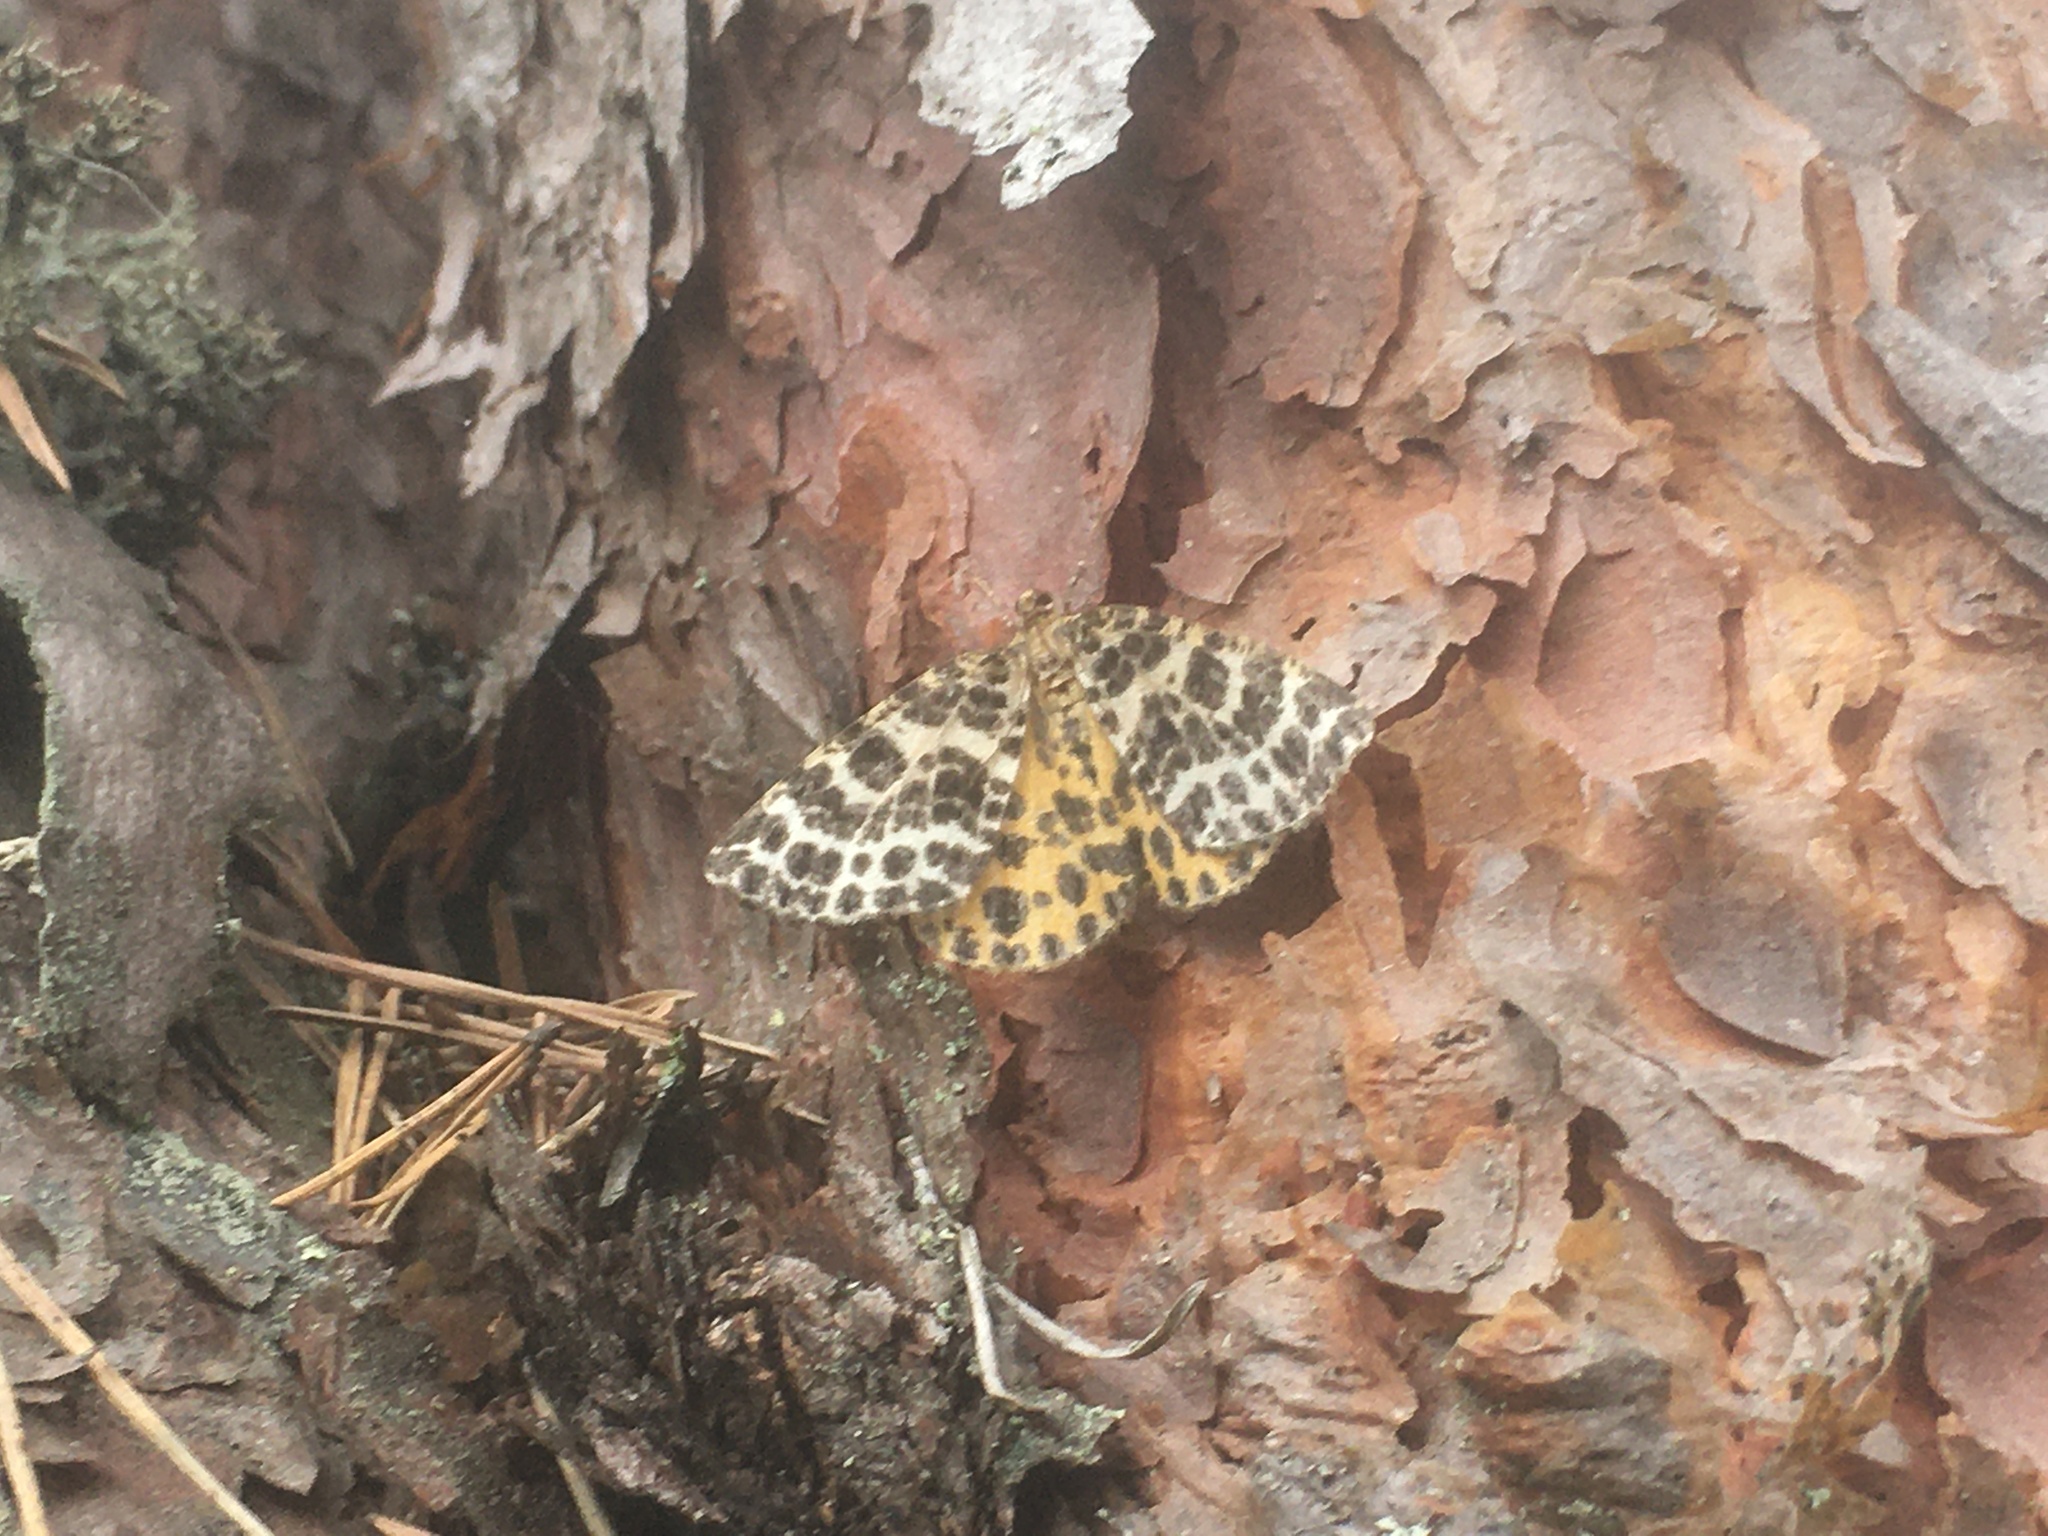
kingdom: Animalia
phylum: Arthropoda
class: Insecta
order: Lepidoptera
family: Geometridae
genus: Arichanna
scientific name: Arichanna melanaria
